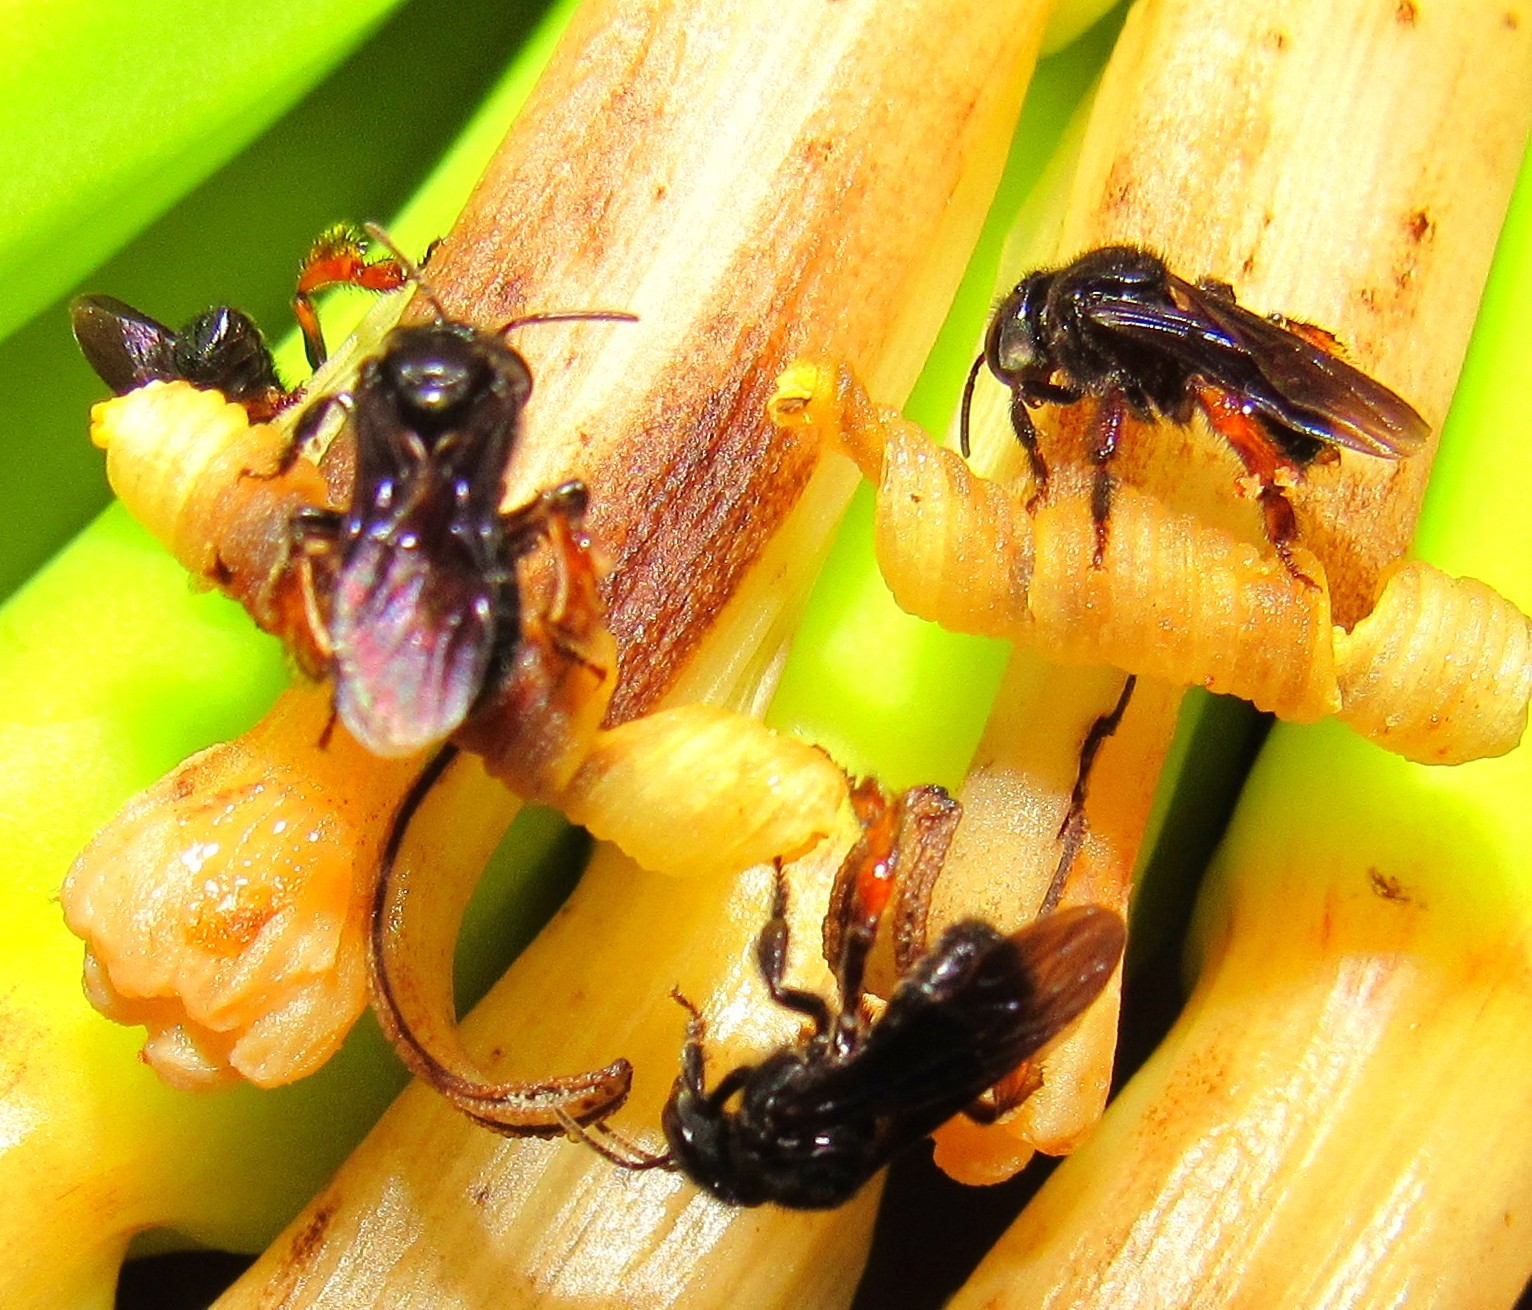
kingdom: Animalia
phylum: Arthropoda
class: Insecta
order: Hymenoptera
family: Apidae
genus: Trigona
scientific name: Trigona spinipes
